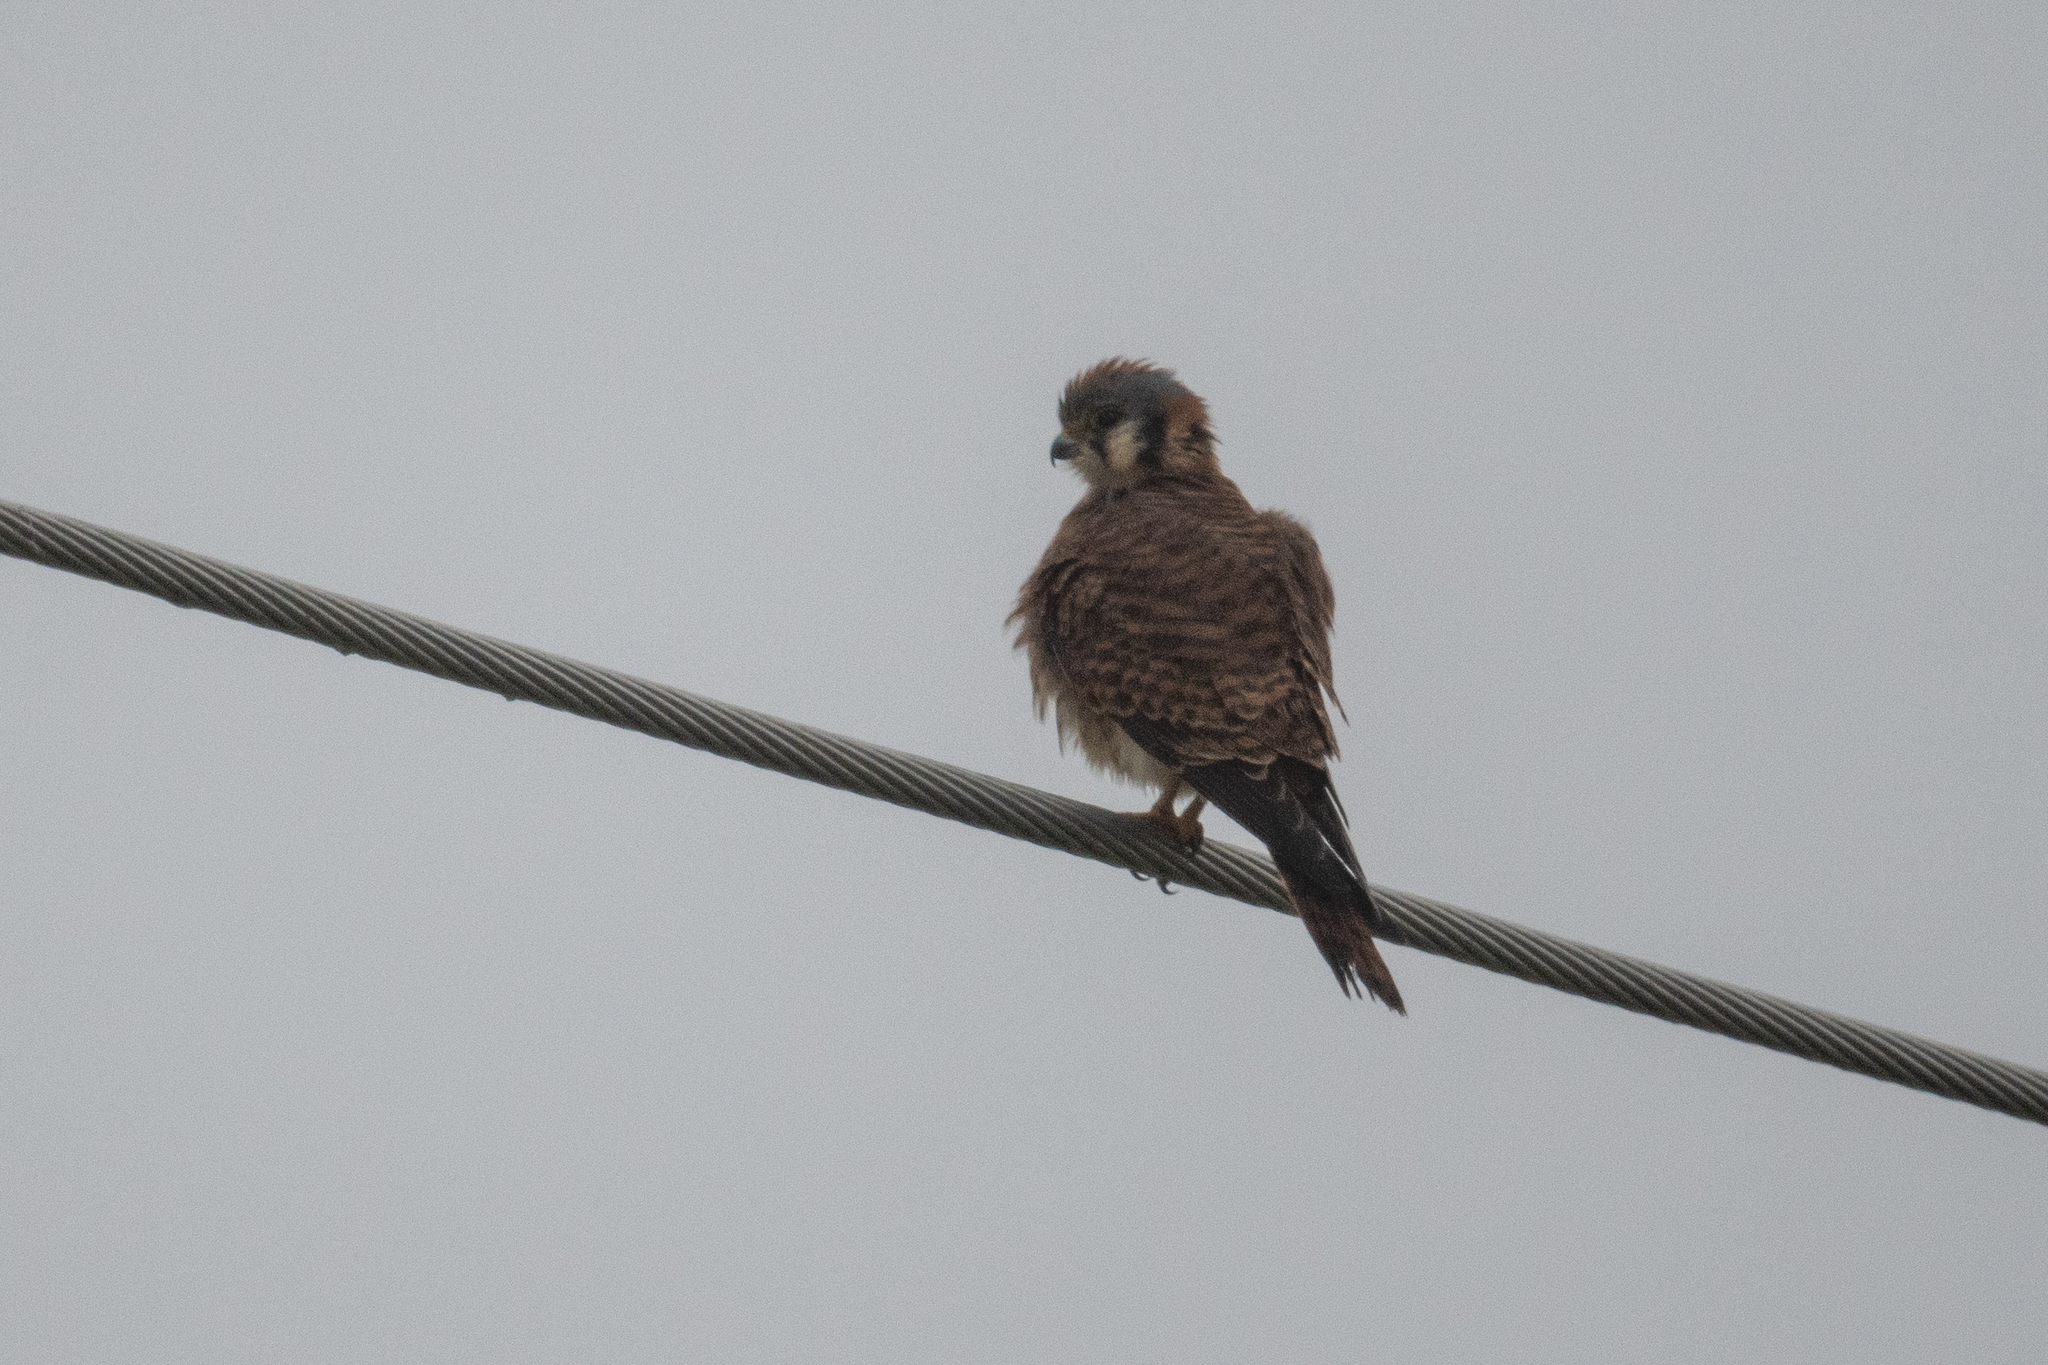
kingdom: Animalia
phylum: Chordata
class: Aves
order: Falconiformes
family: Falconidae
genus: Falco
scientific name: Falco sparverius
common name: American kestrel
